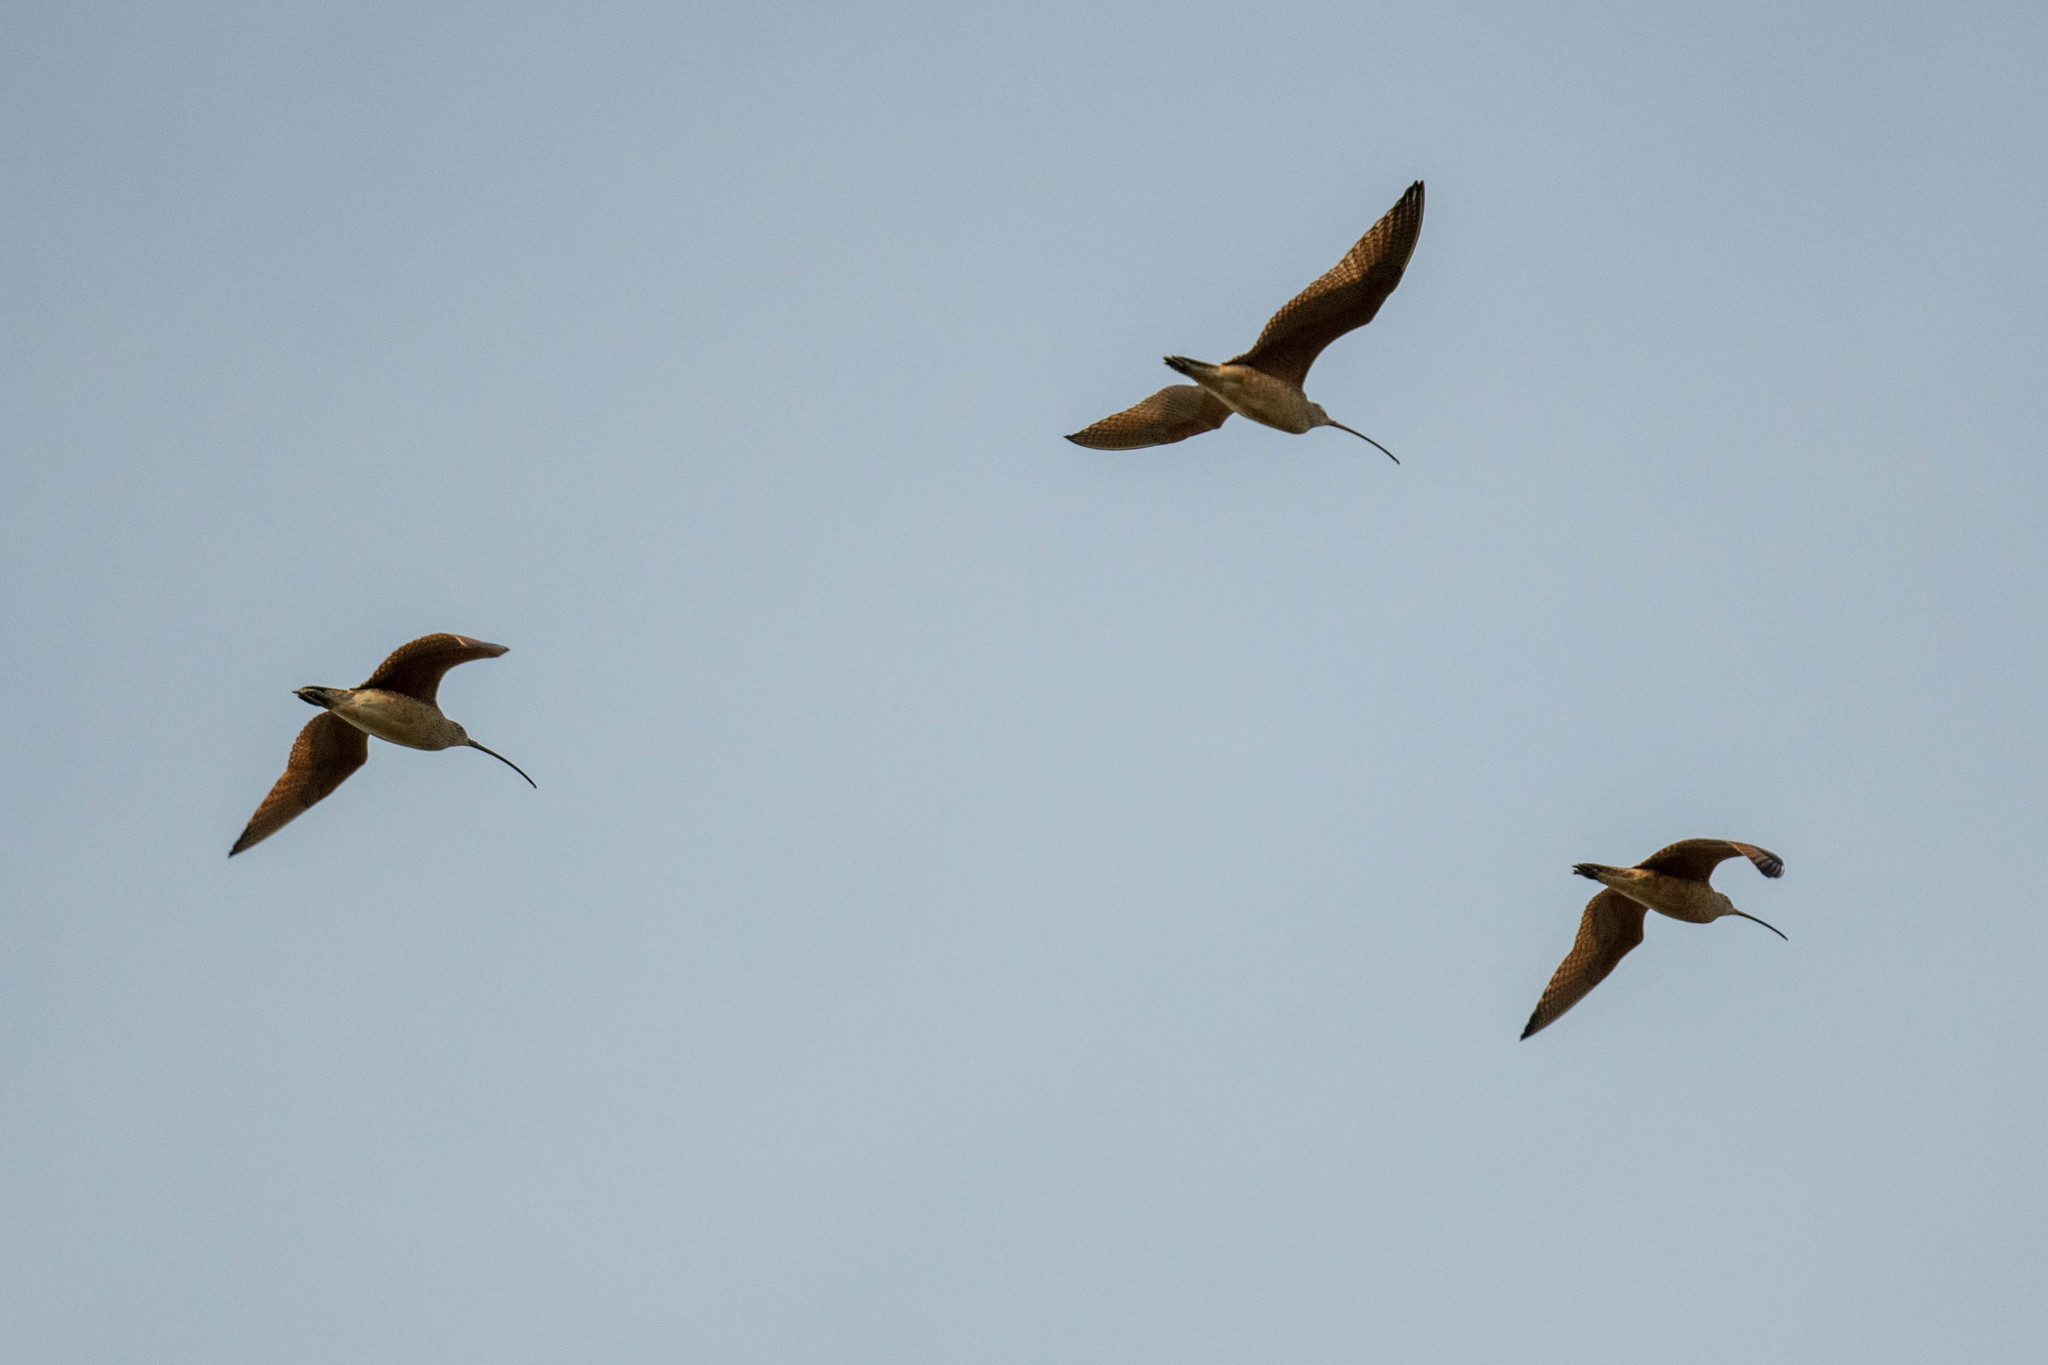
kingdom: Animalia
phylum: Chordata
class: Aves
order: Charadriiformes
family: Scolopacidae
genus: Numenius
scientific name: Numenius americanus
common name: Long-billed curlew
